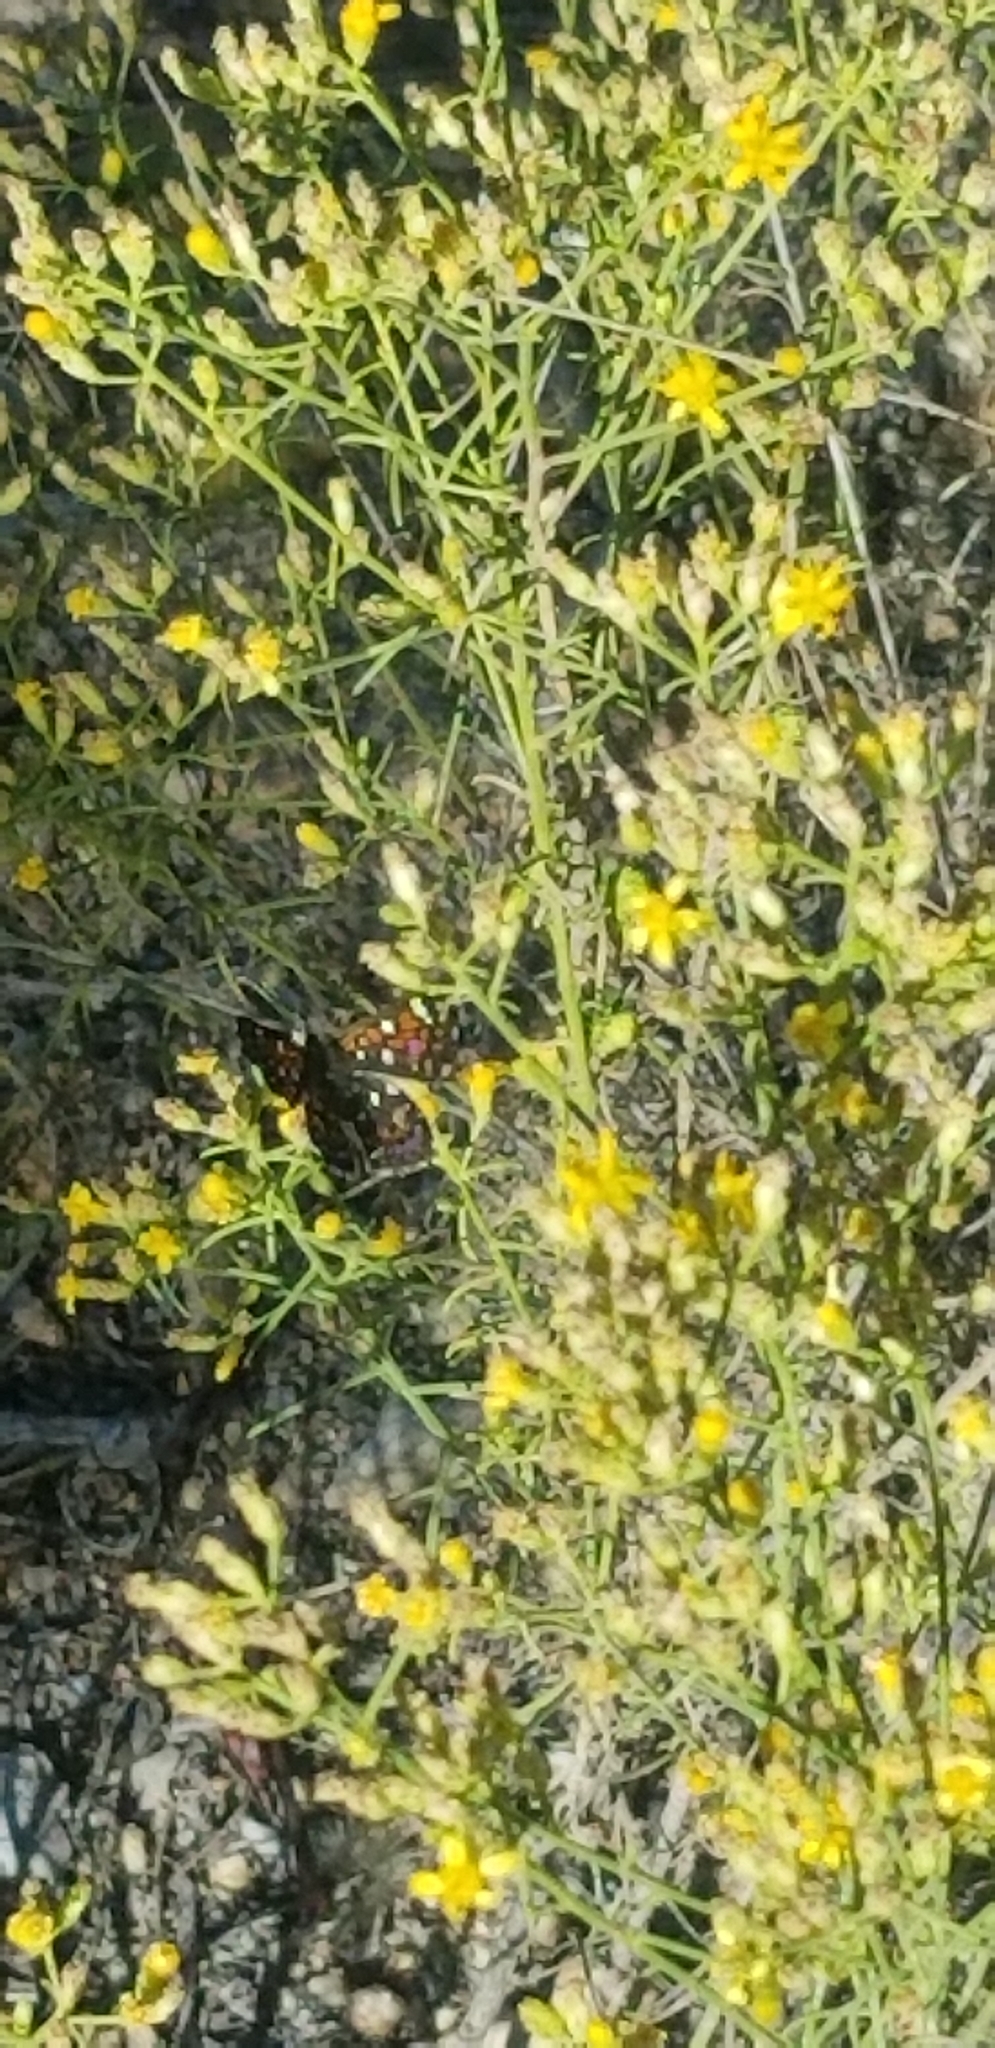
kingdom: Animalia
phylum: Arthropoda
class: Insecta
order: Lepidoptera
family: Riodinidae
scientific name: Riodinidae
